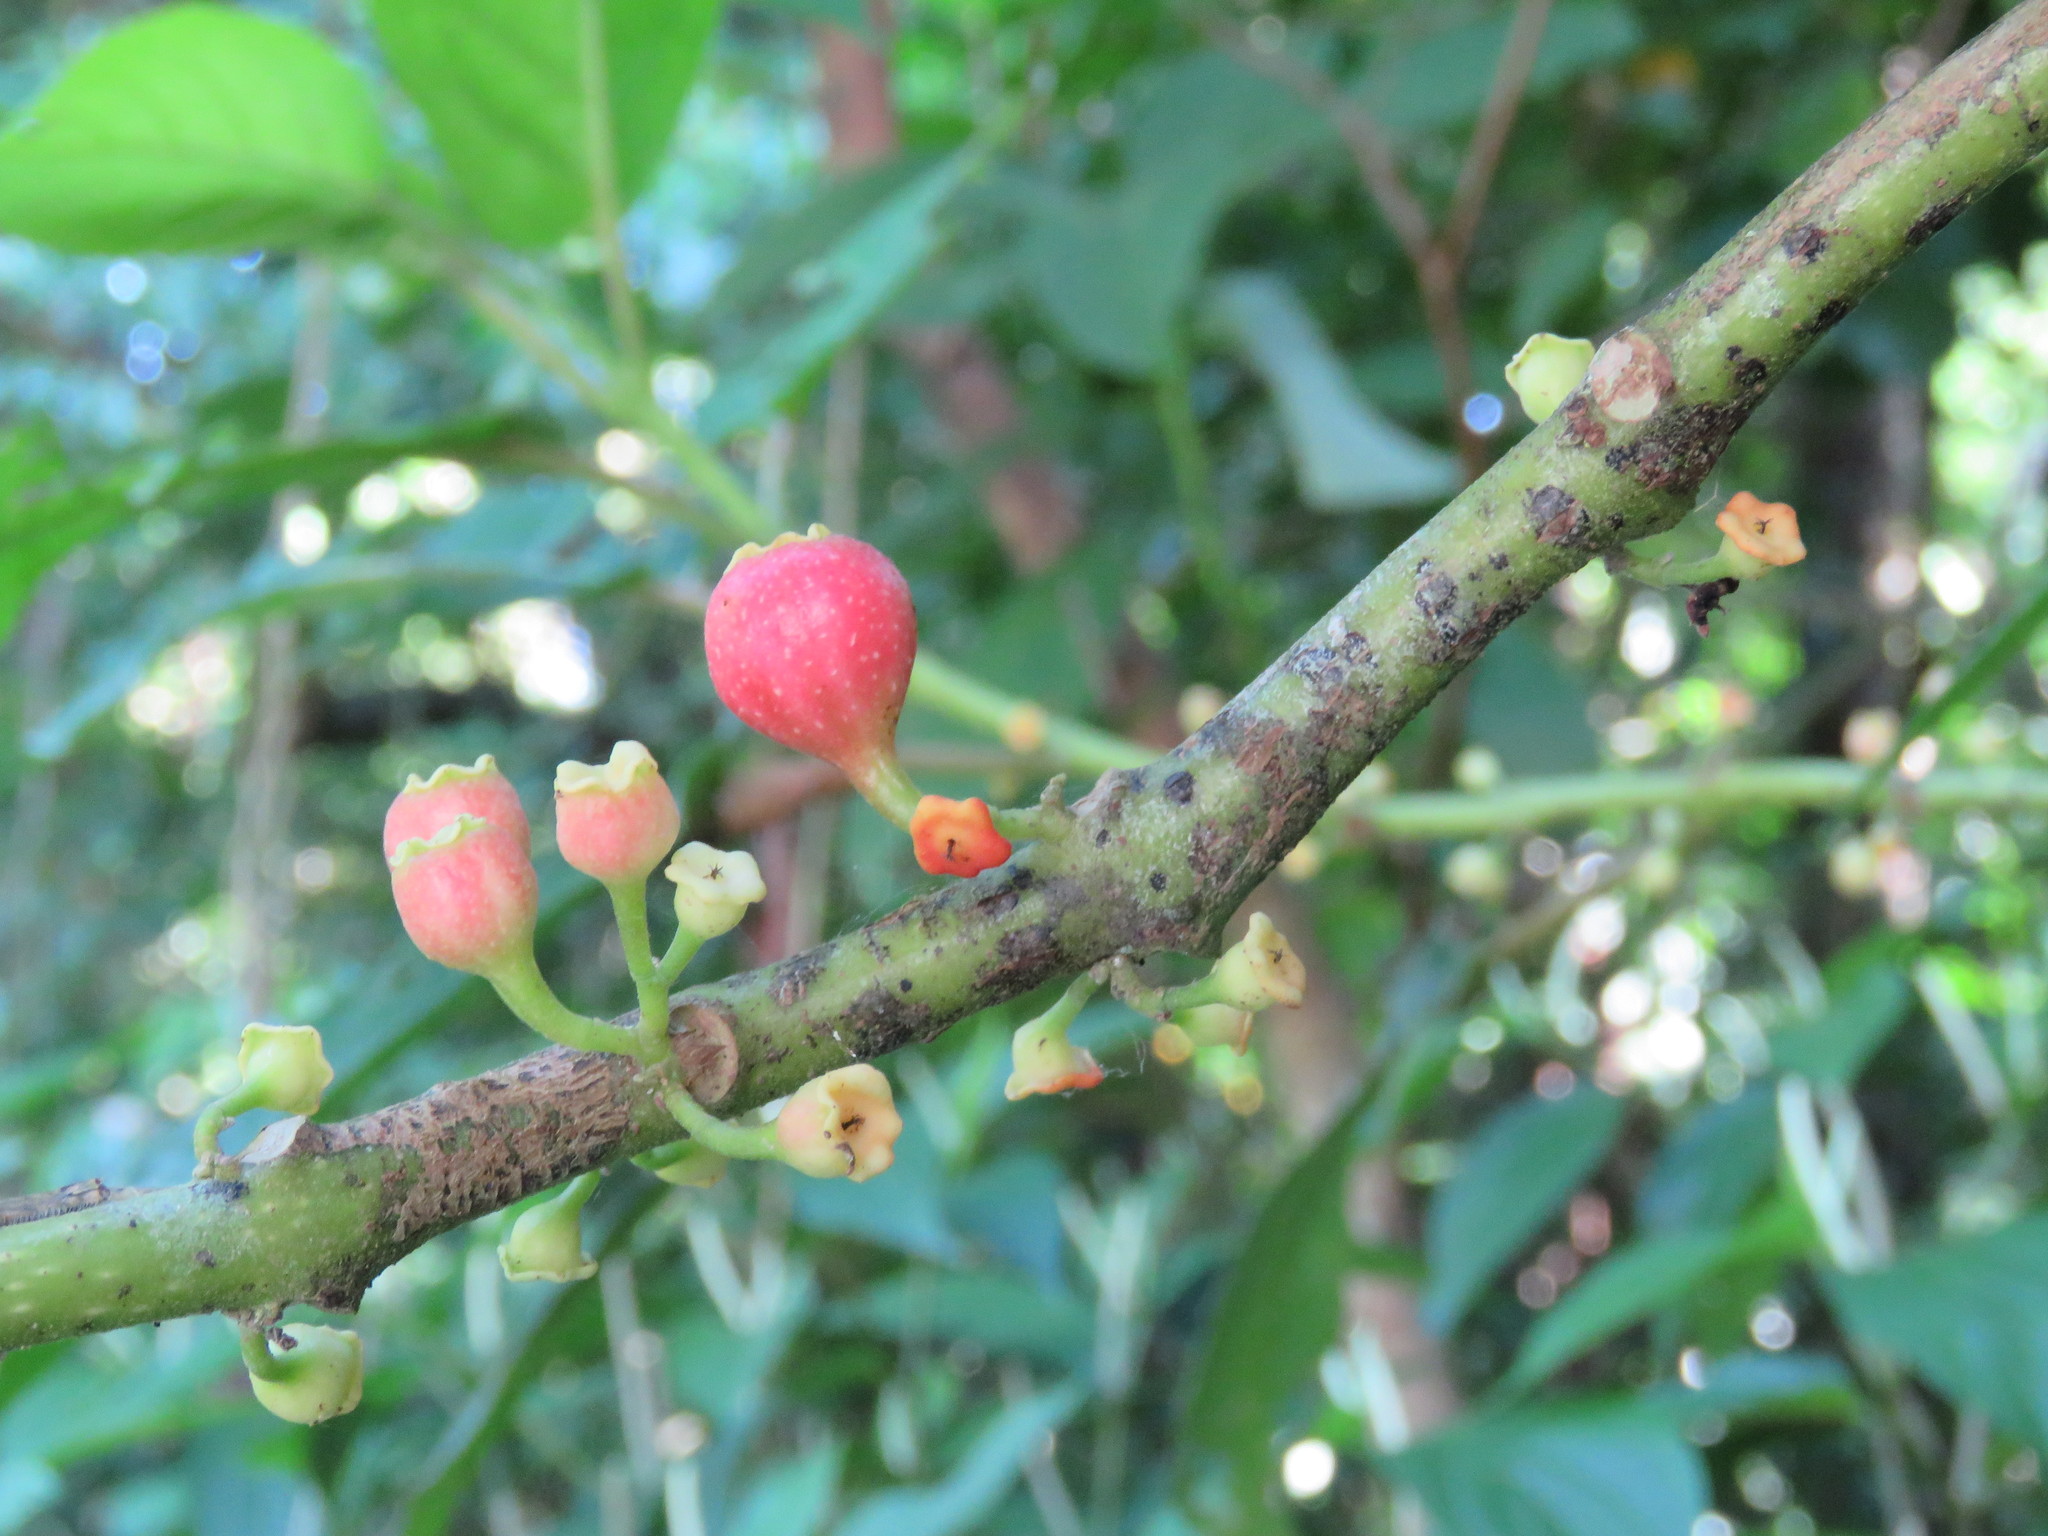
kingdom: Plantae
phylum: Tracheophyta
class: Magnoliopsida
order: Laurales
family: Siparunaceae
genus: Siparuna
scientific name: Siparuna thecaphora
